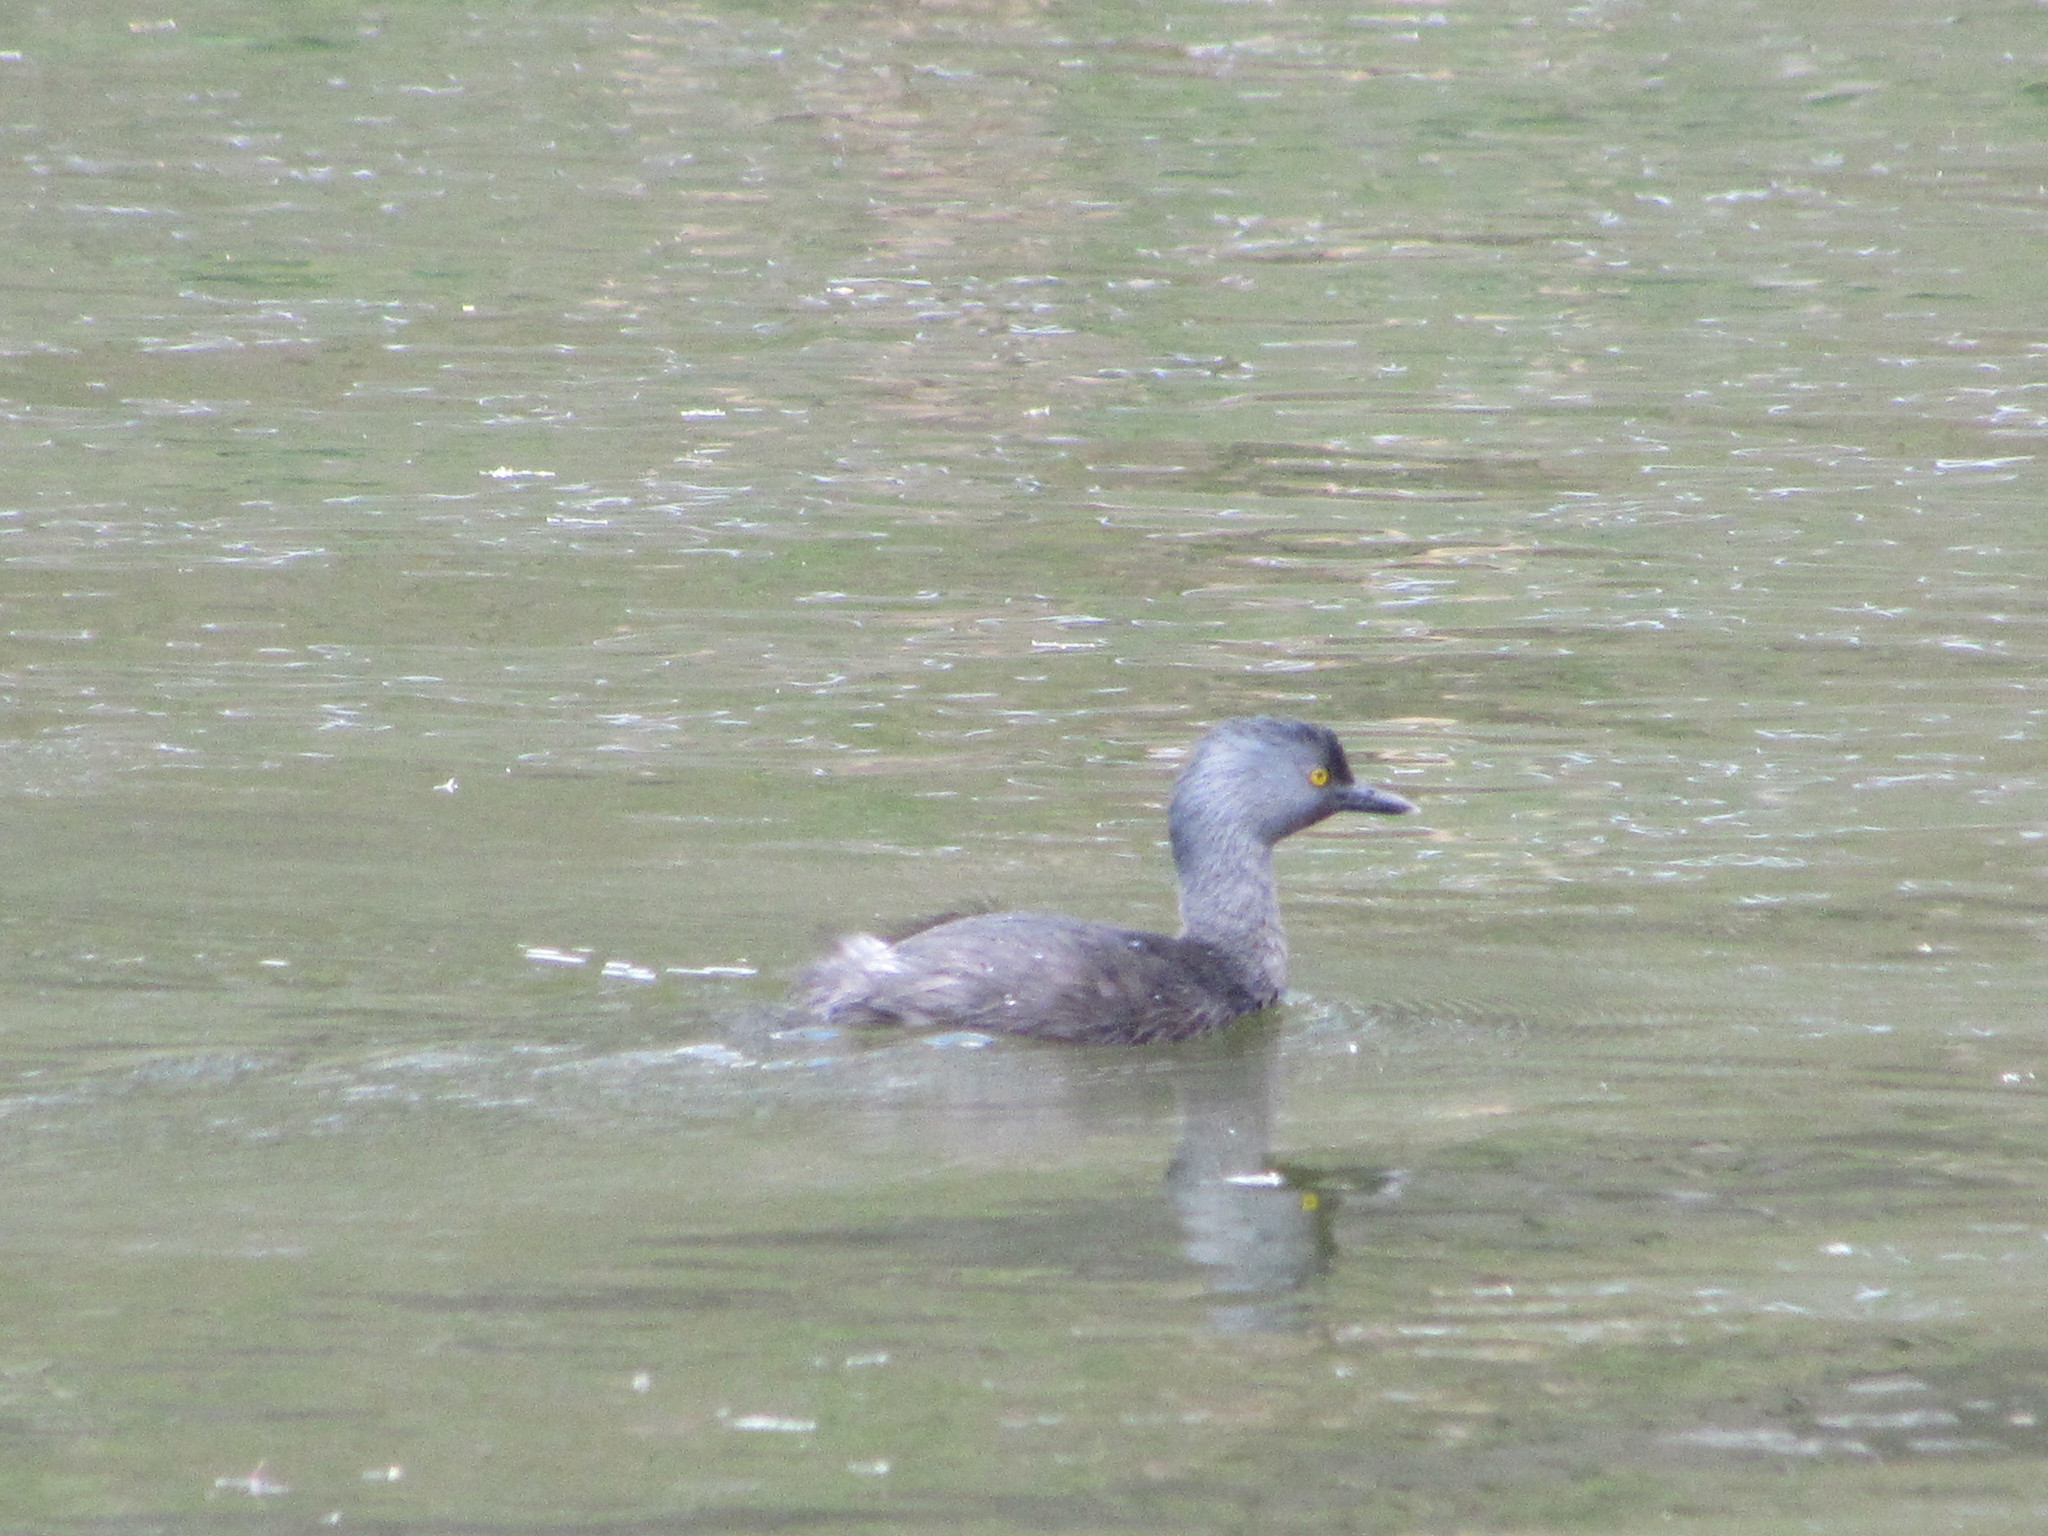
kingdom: Animalia
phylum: Chordata
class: Aves
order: Podicipediformes
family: Podicipedidae
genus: Tachybaptus
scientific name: Tachybaptus dominicus
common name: Least grebe
